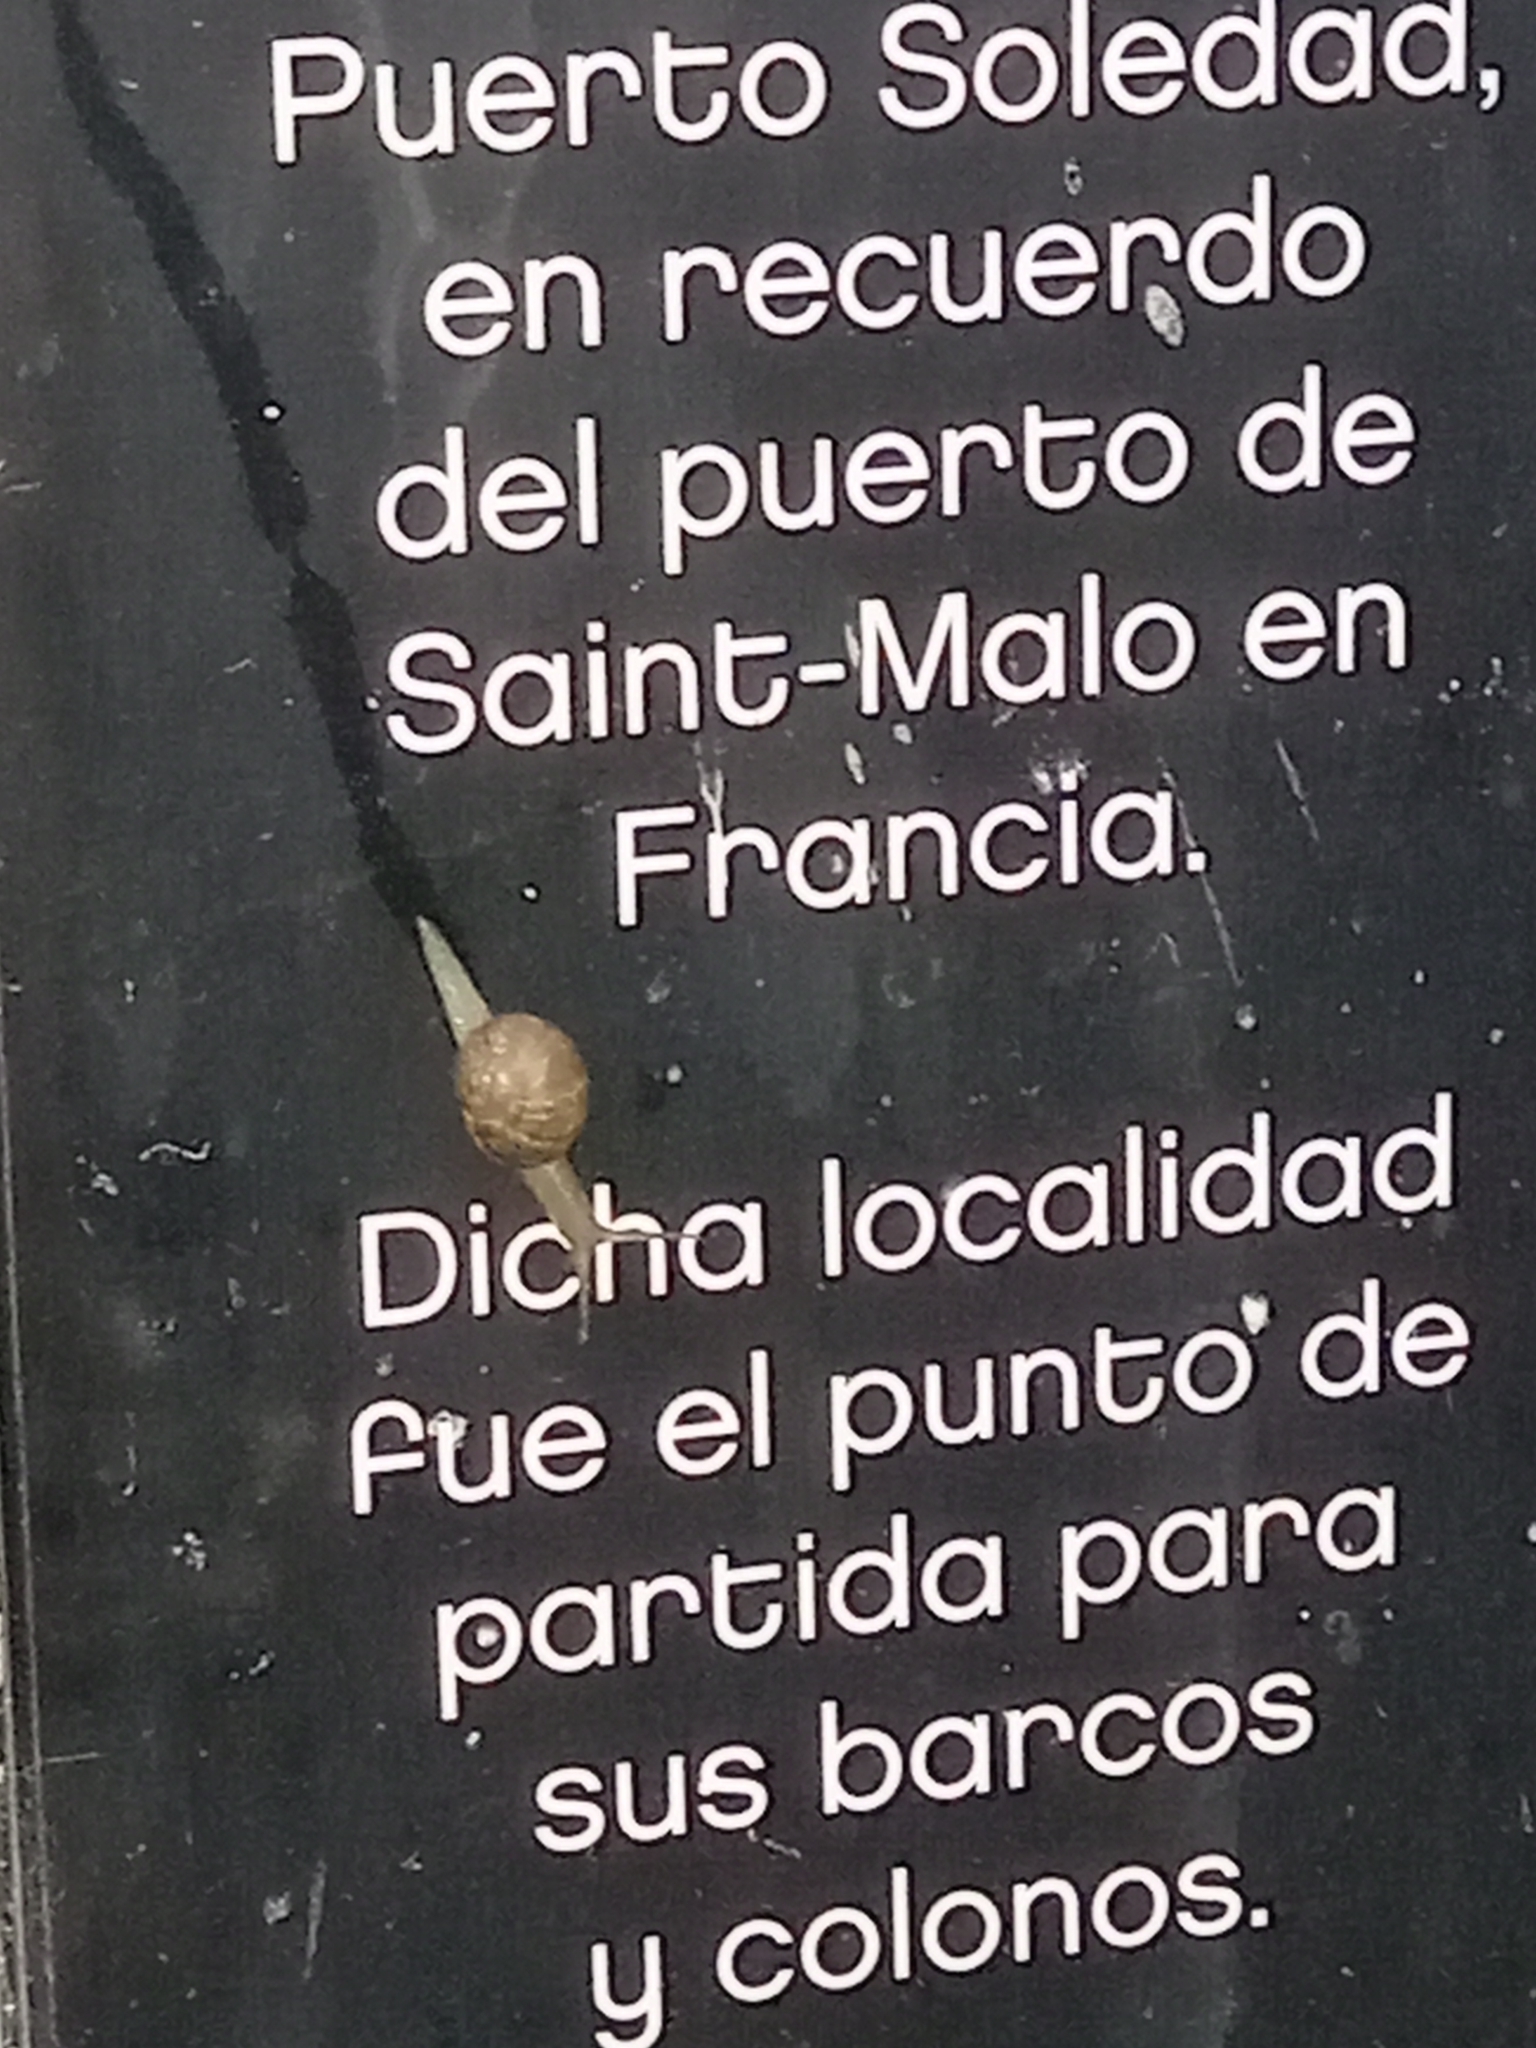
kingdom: Animalia
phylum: Mollusca
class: Gastropoda
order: Stylommatophora
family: Helicidae
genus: Cornu
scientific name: Cornu aspersum
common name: Brown garden snail
